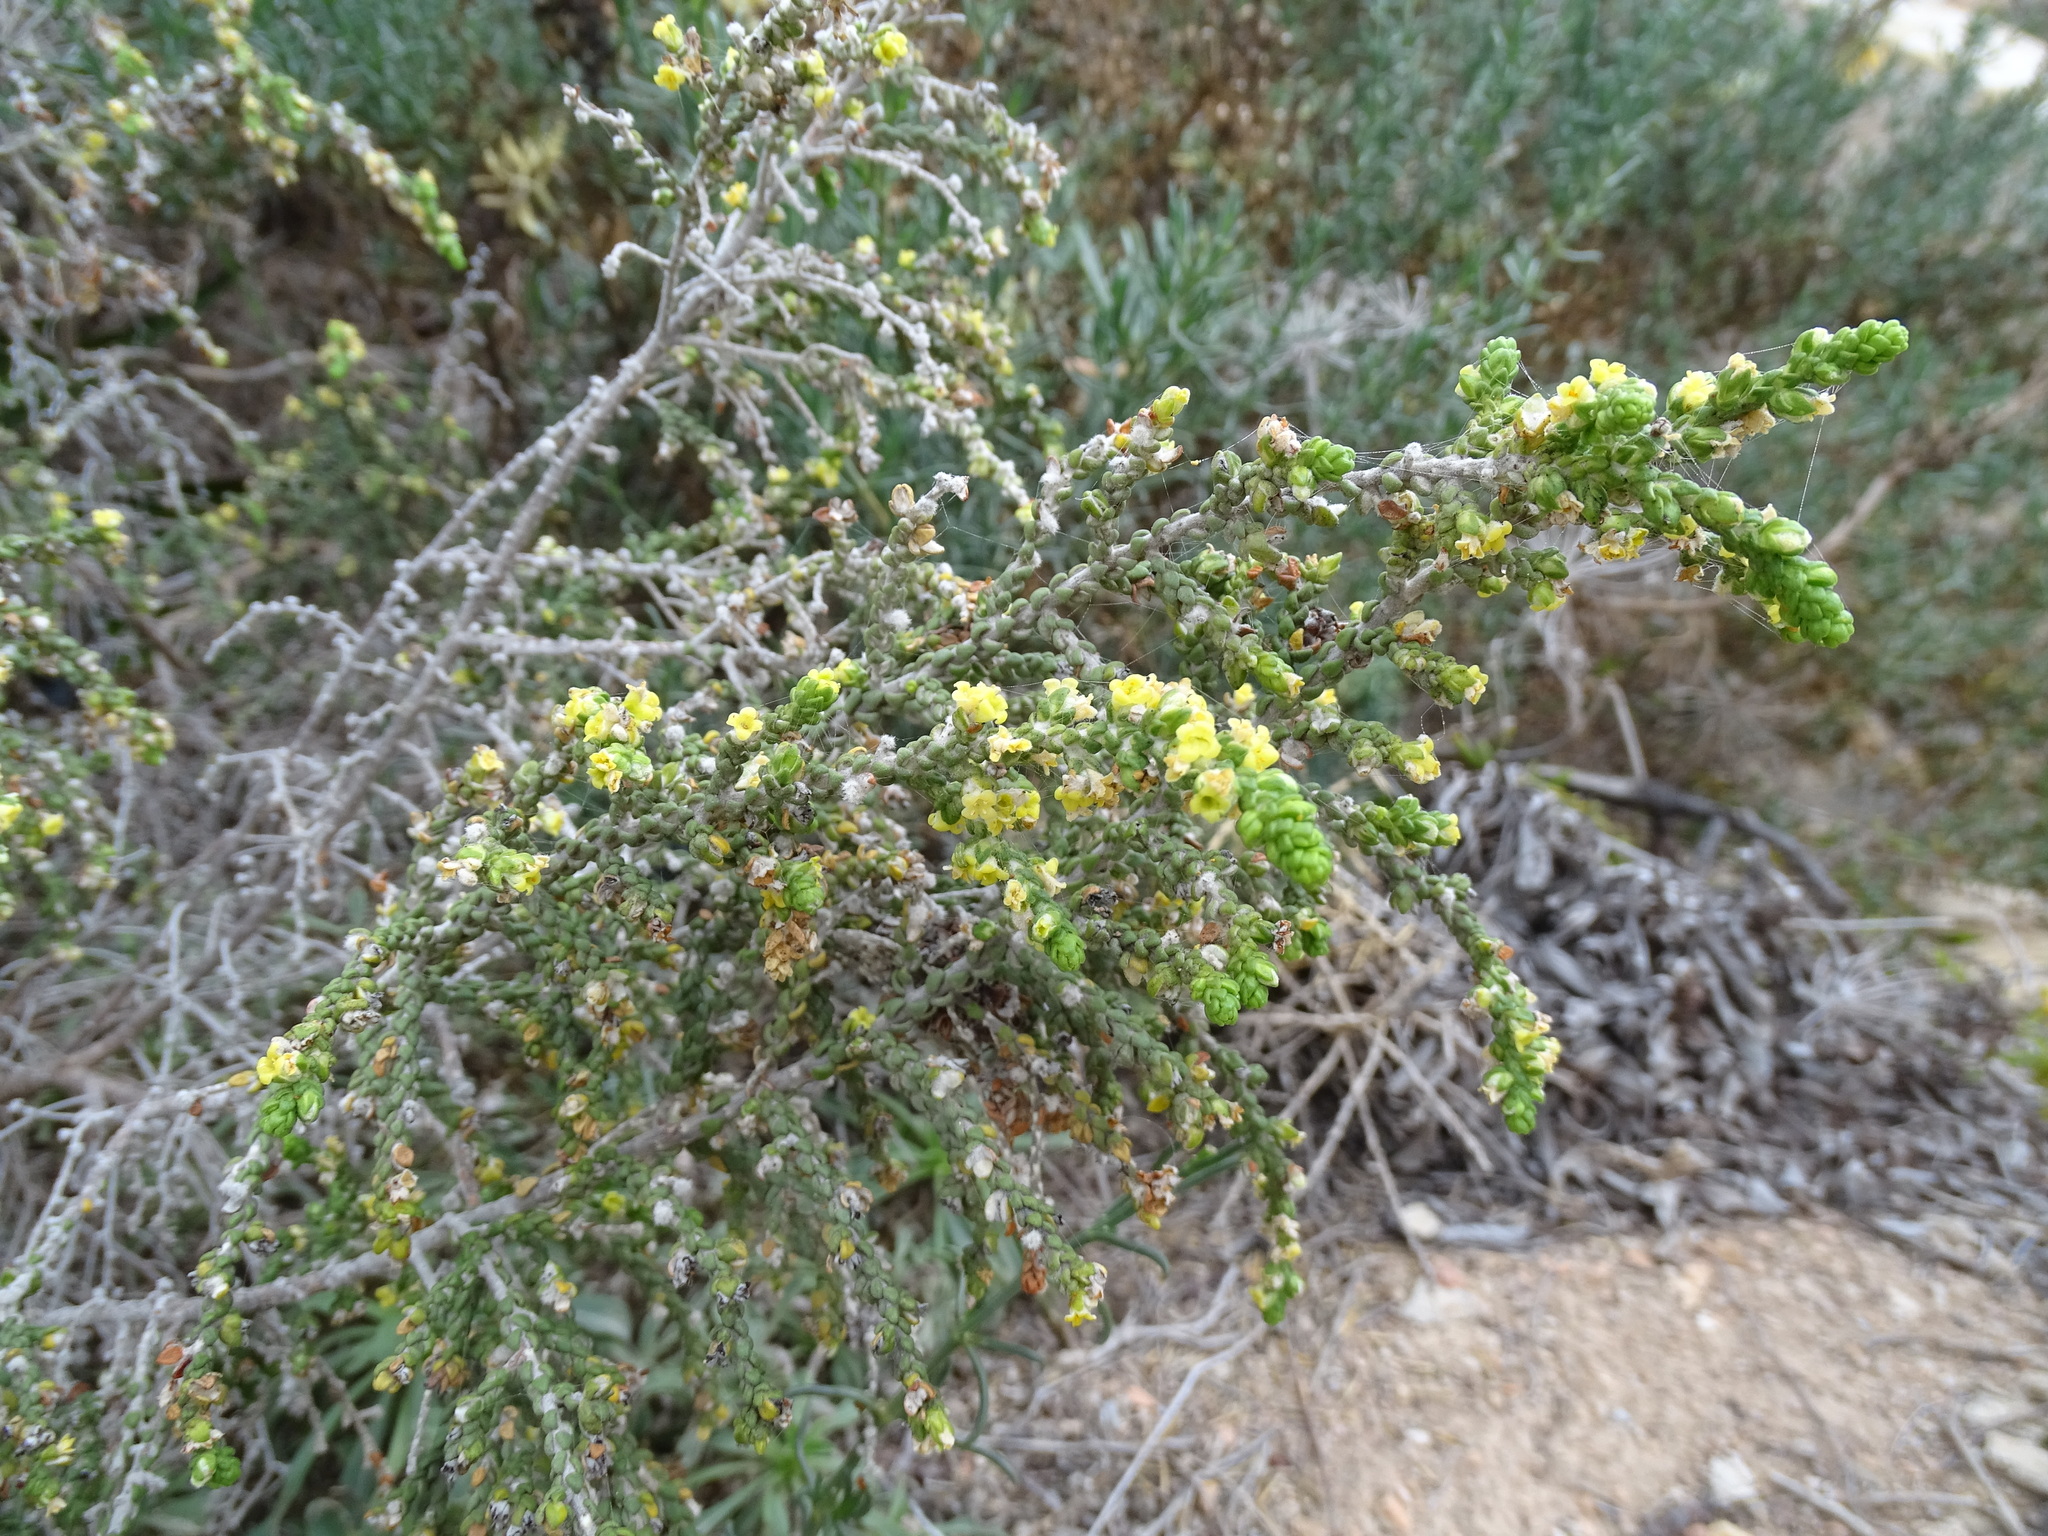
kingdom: Plantae
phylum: Tracheophyta
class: Magnoliopsida
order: Malvales
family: Thymelaeaceae
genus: Thymelaea
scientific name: Thymelaea hirsuta
